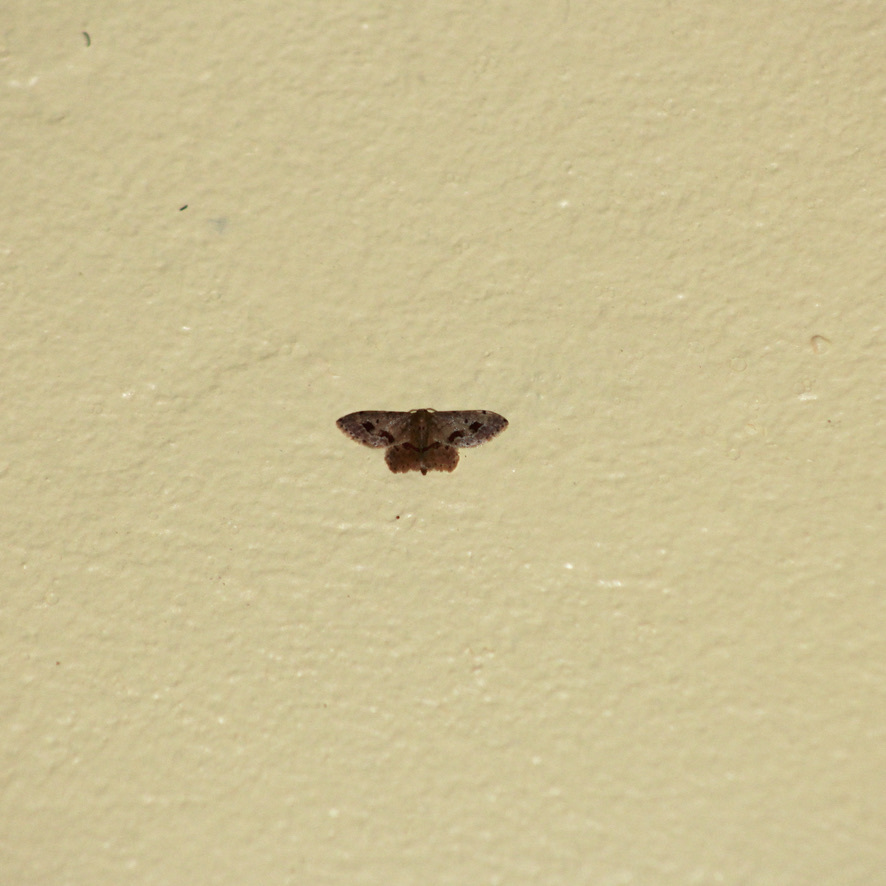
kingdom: Animalia
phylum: Arthropoda
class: Insecta
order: Lepidoptera
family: Geometridae
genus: Idaea
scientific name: Idaea gospera
